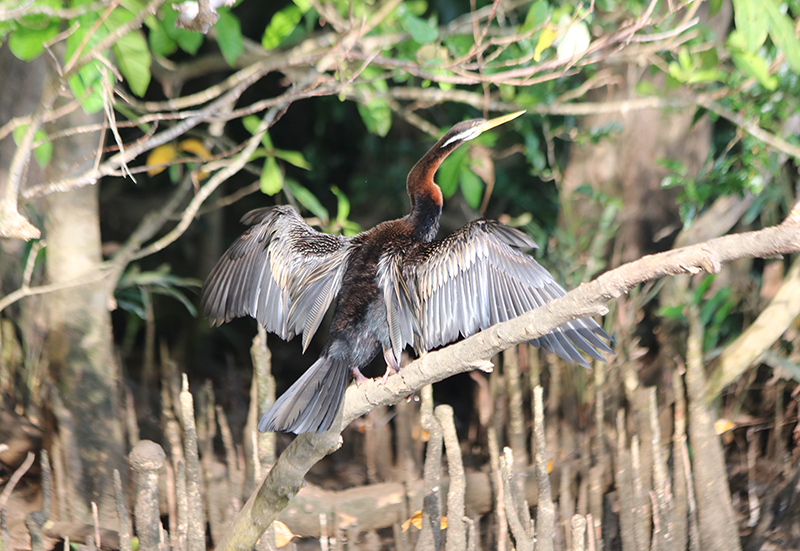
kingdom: Animalia
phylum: Chordata
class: Aves
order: Suliformes
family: Anhingidae
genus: Anhinga
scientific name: Anhinga novaehollandiae
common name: Australasian darter
